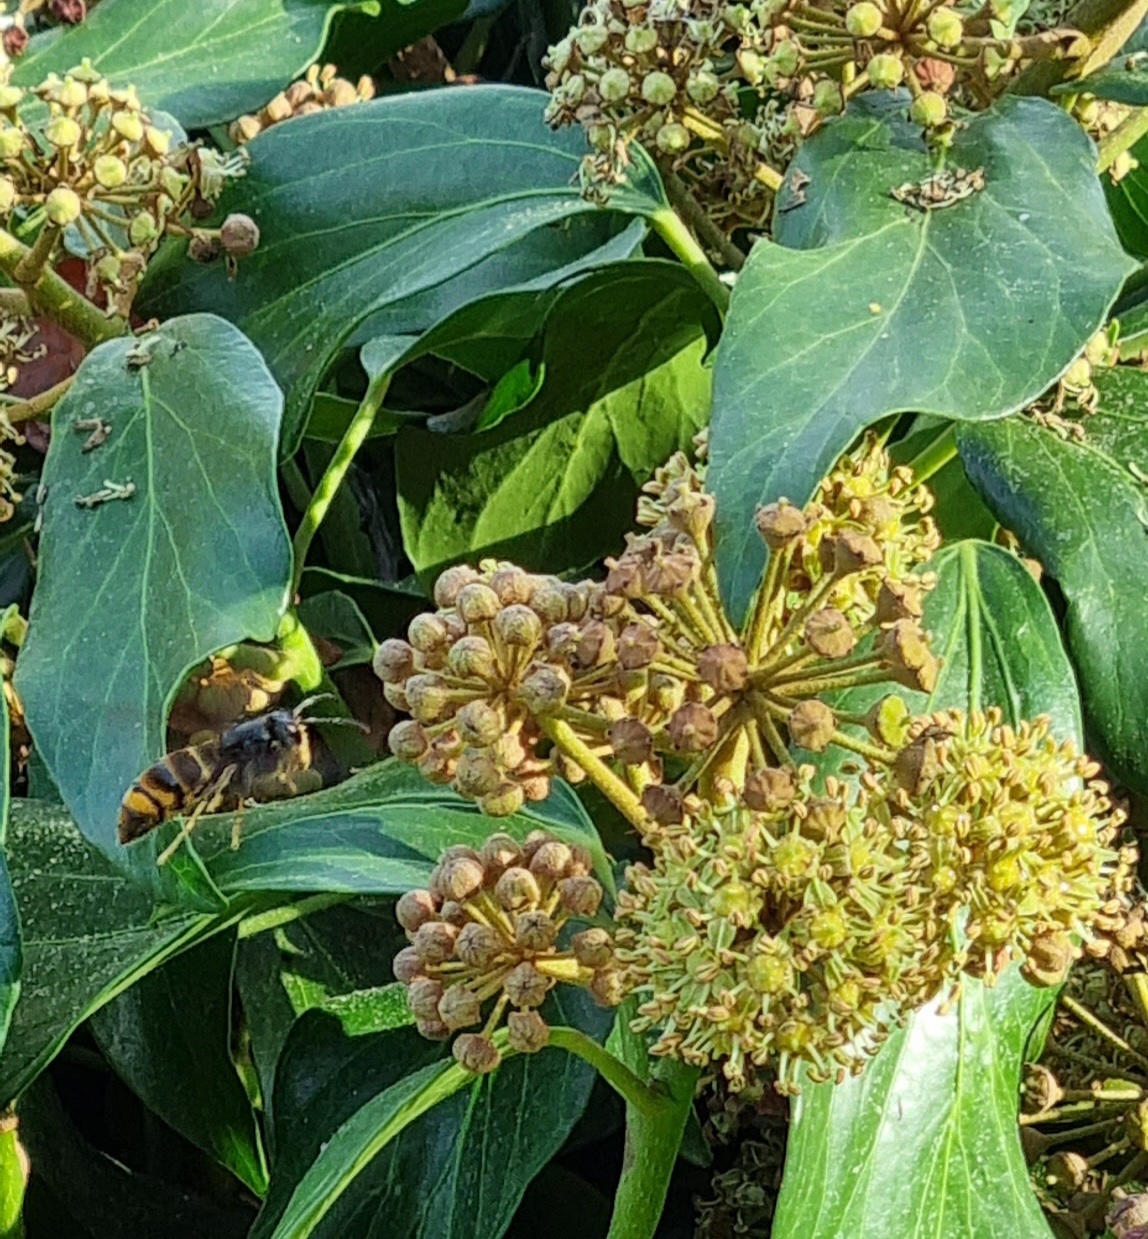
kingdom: Animalia
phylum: Arthropoda
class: Insecta
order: Hymenoptera
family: Vespidae
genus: Vespa
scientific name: Vespa velutina
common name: Asian hornet
